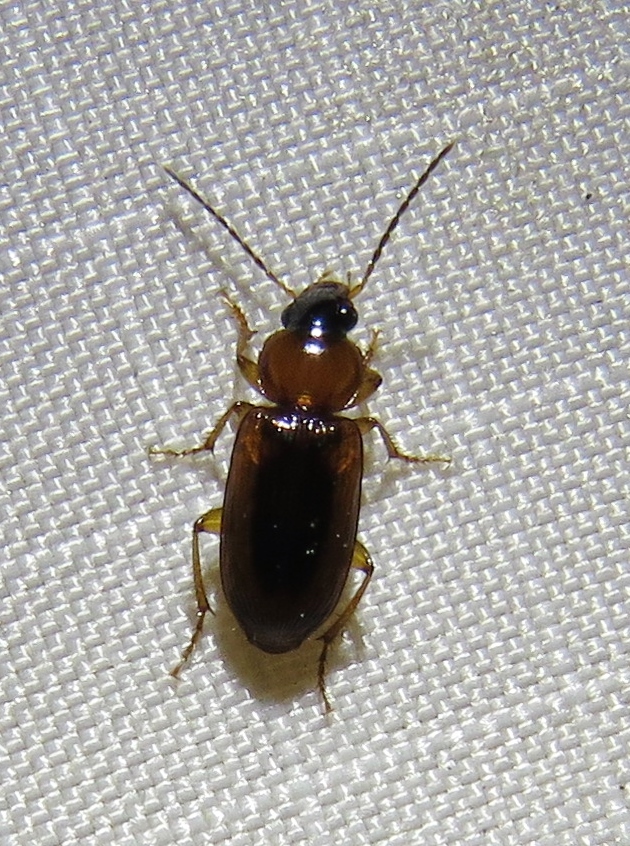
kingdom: Animalia
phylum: Arthropoda
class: Insecta
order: Coleoptera
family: Carabidae
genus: Stenolophus
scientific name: Stenolophus dissimilis
